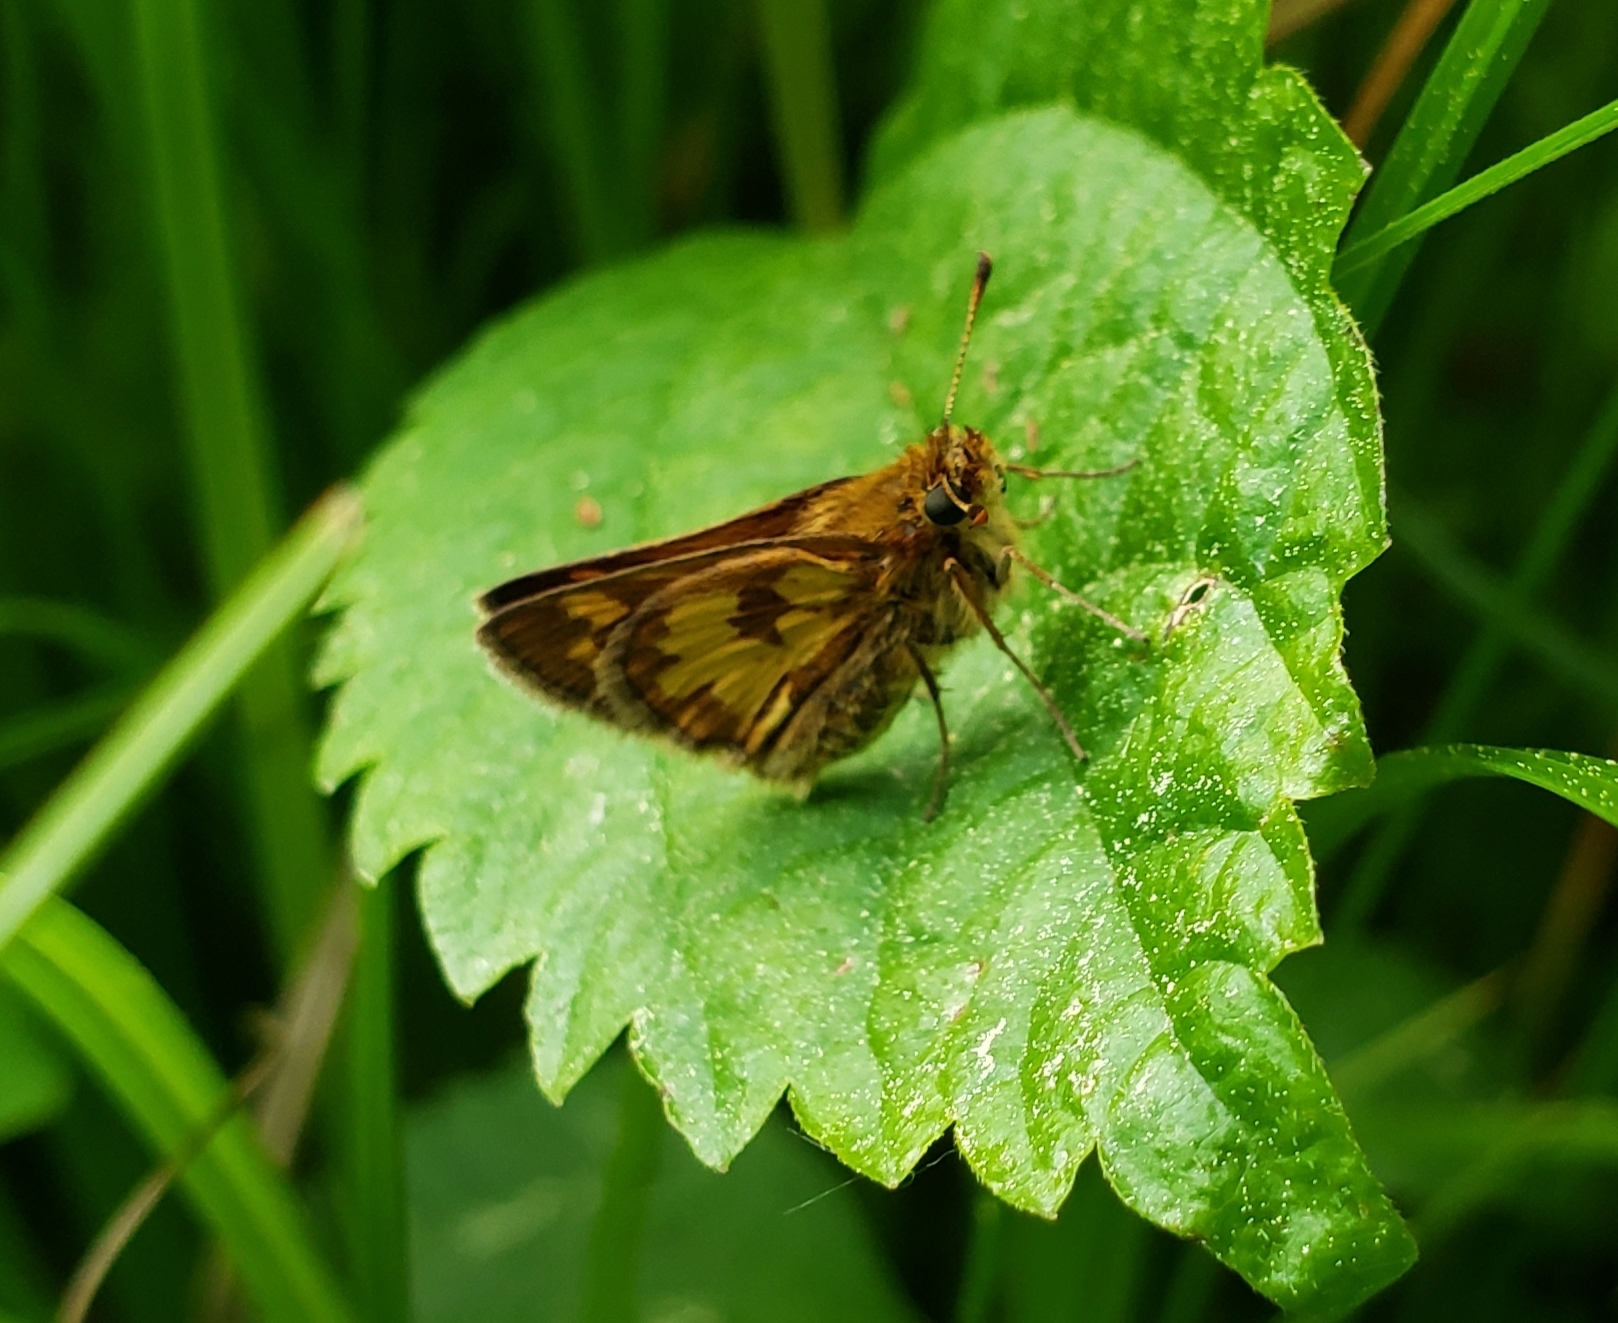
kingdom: Animalia
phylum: Arthropoda
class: Insecta
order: Lepidoptera
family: Hesperiidae
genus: Polites
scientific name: Polites coras
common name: Peck's skipper
